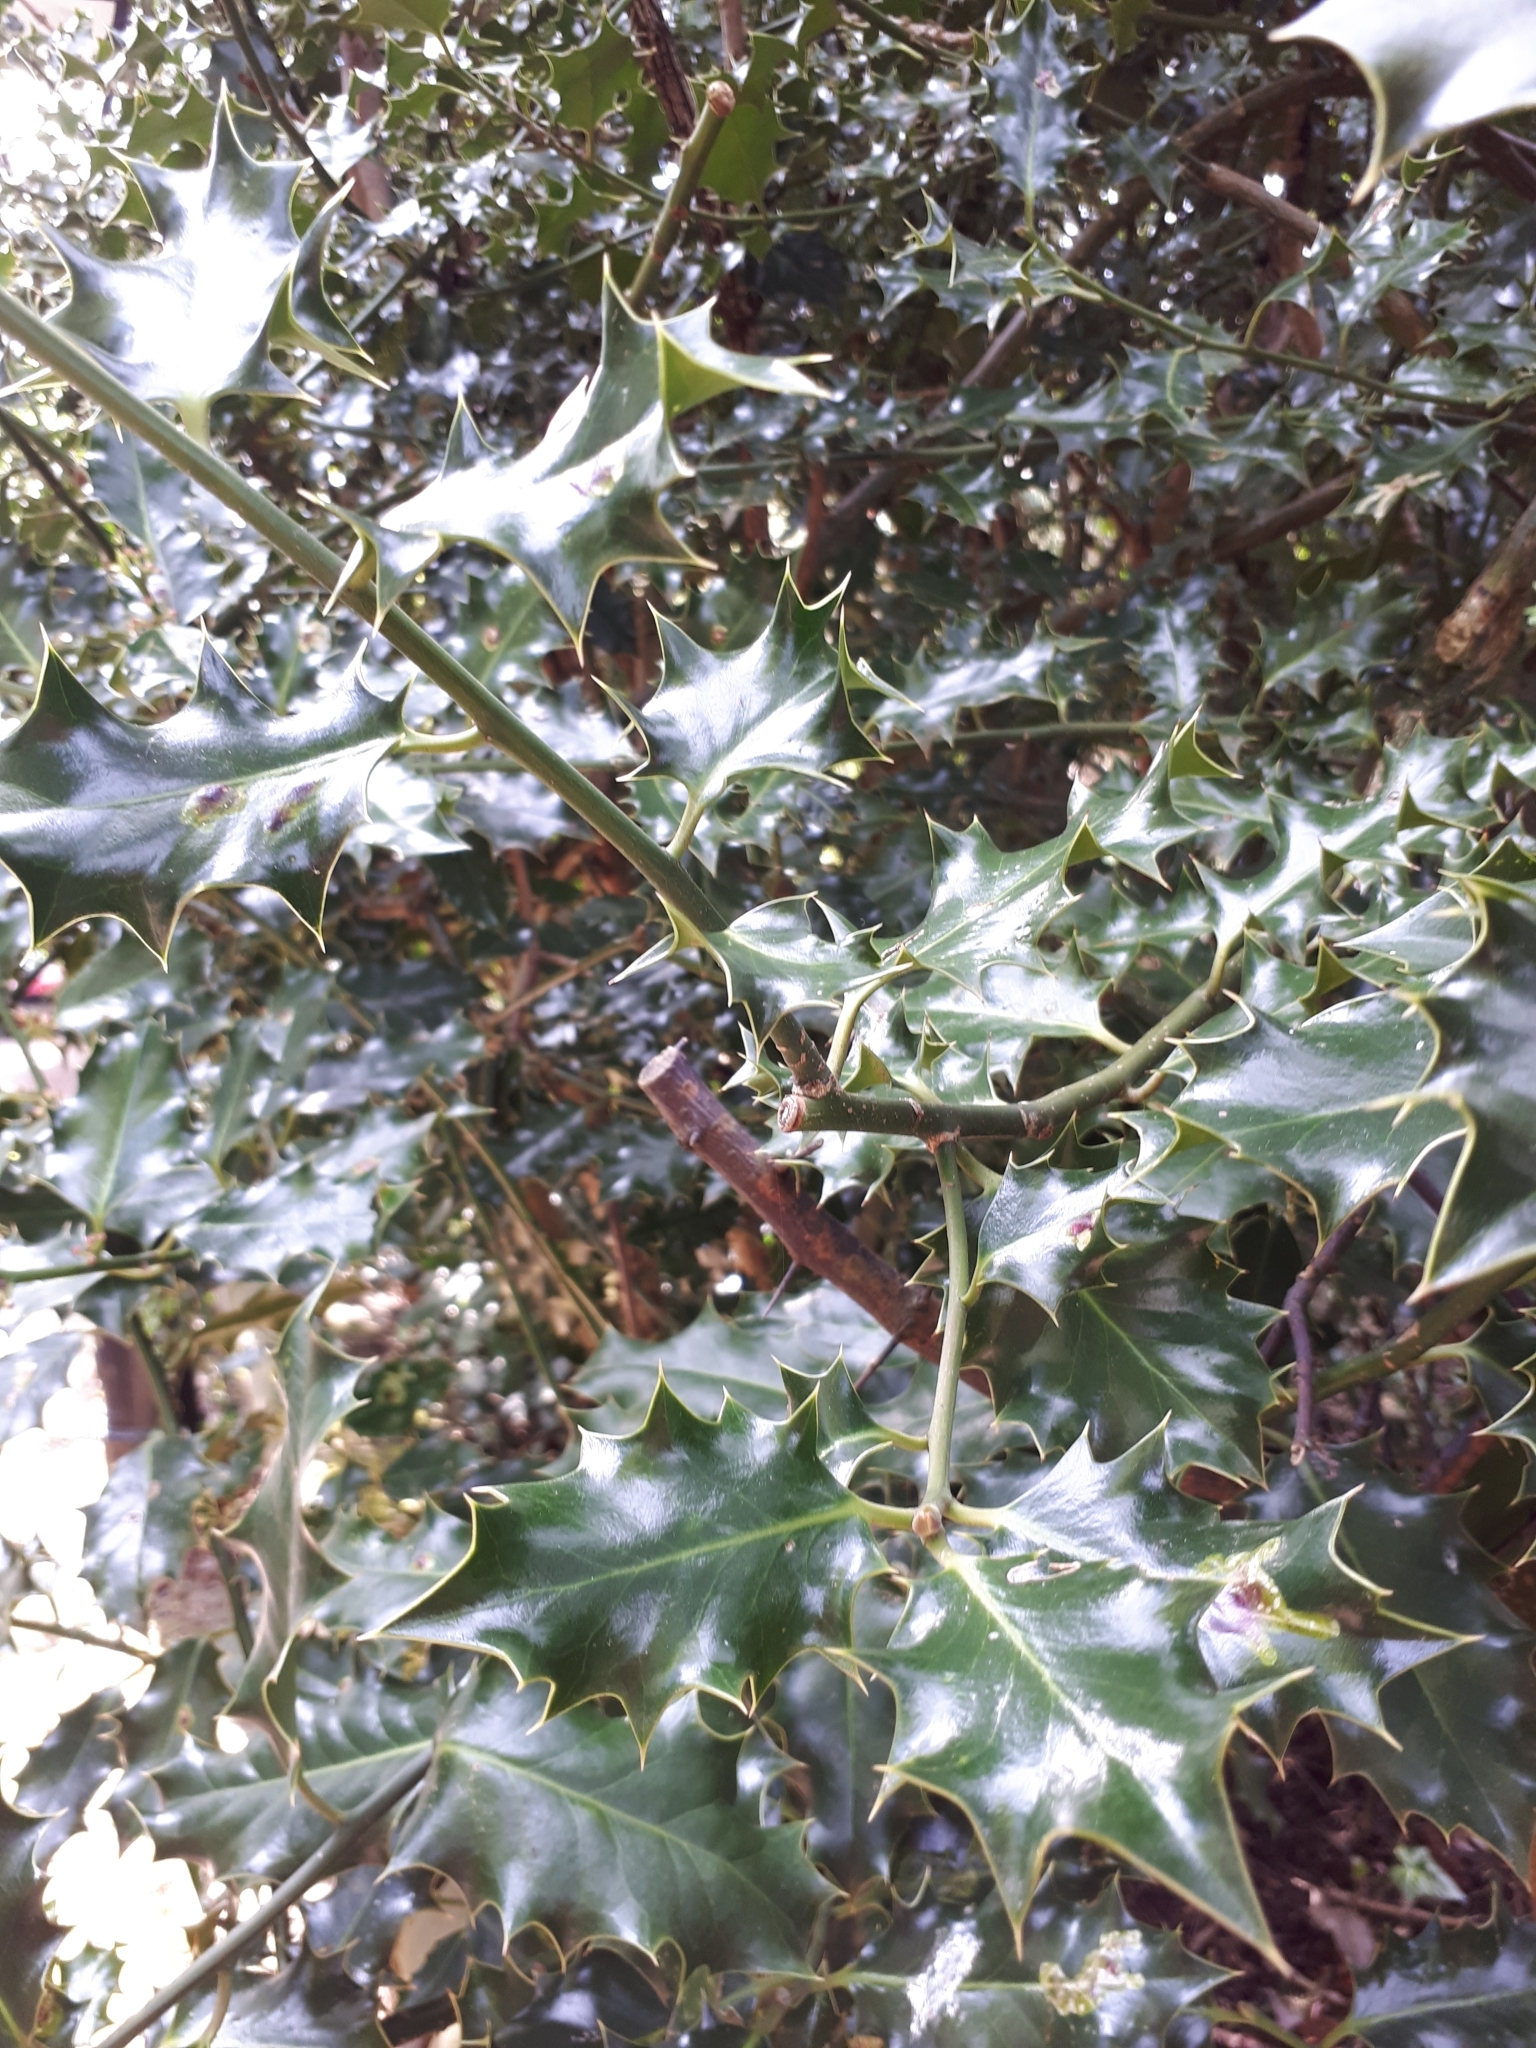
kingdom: Plantae
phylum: Tracheophyta
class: Magnoliopsida
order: Aquifoliales
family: Aquifoliaceae
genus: Ilex
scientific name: Ilex aquifolium
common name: English holly
